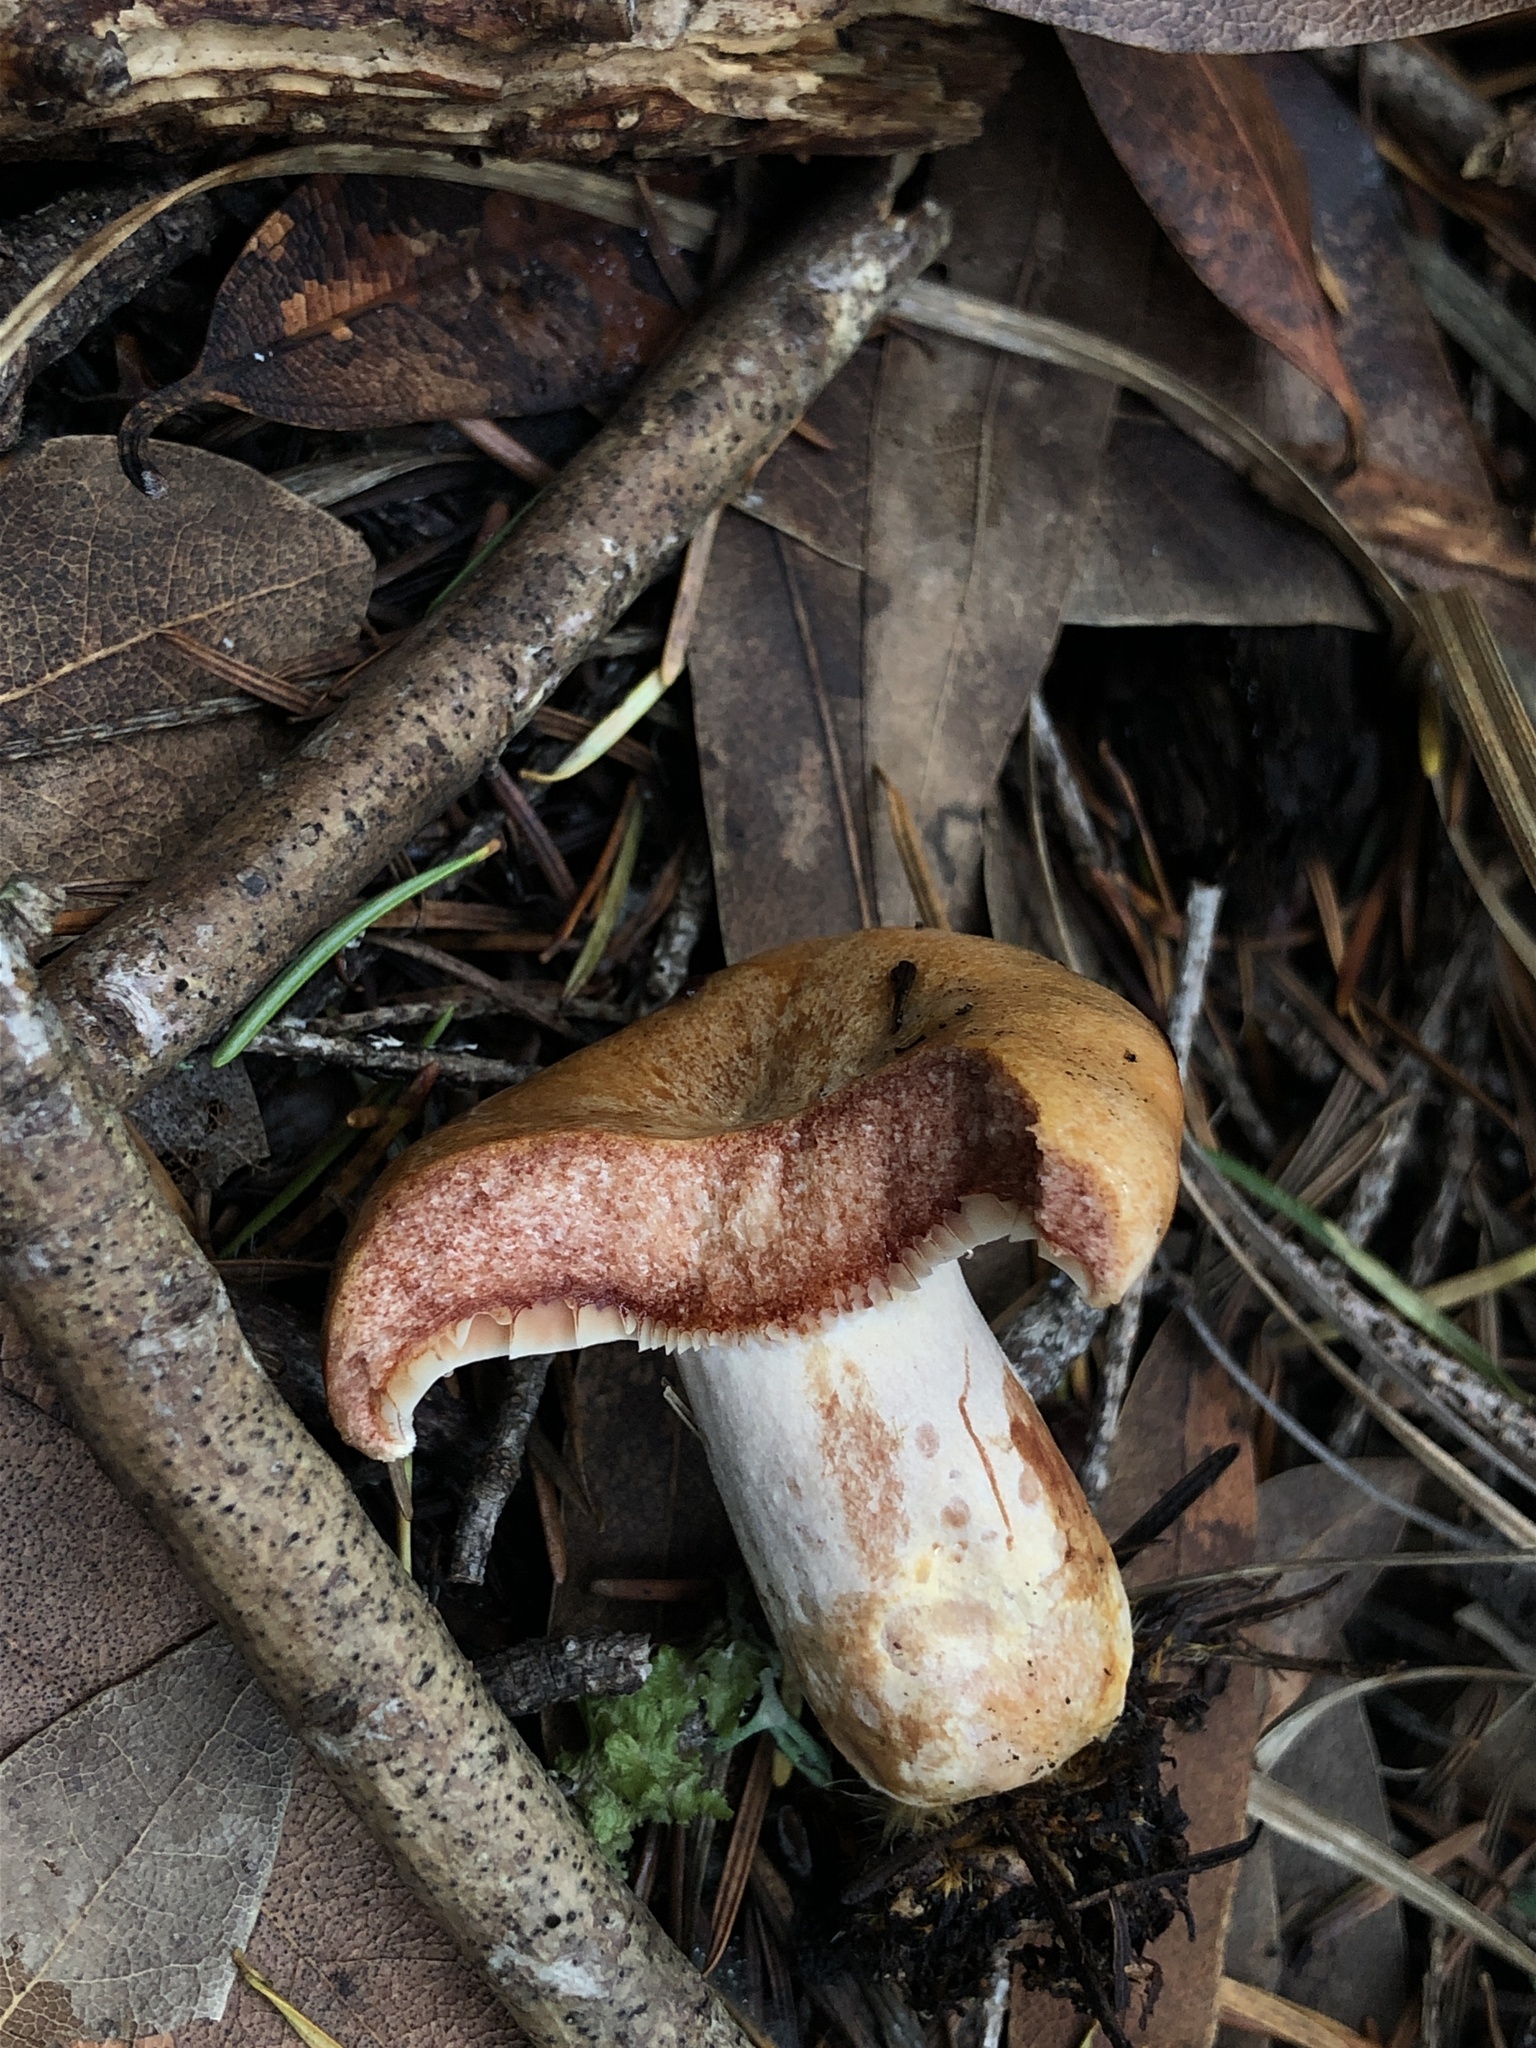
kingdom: Fungi
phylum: Basidiomycota
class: Agaricomycetes
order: Russulales
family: Russulaceae
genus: Lactarius
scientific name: Lactarius rubrilacteus
